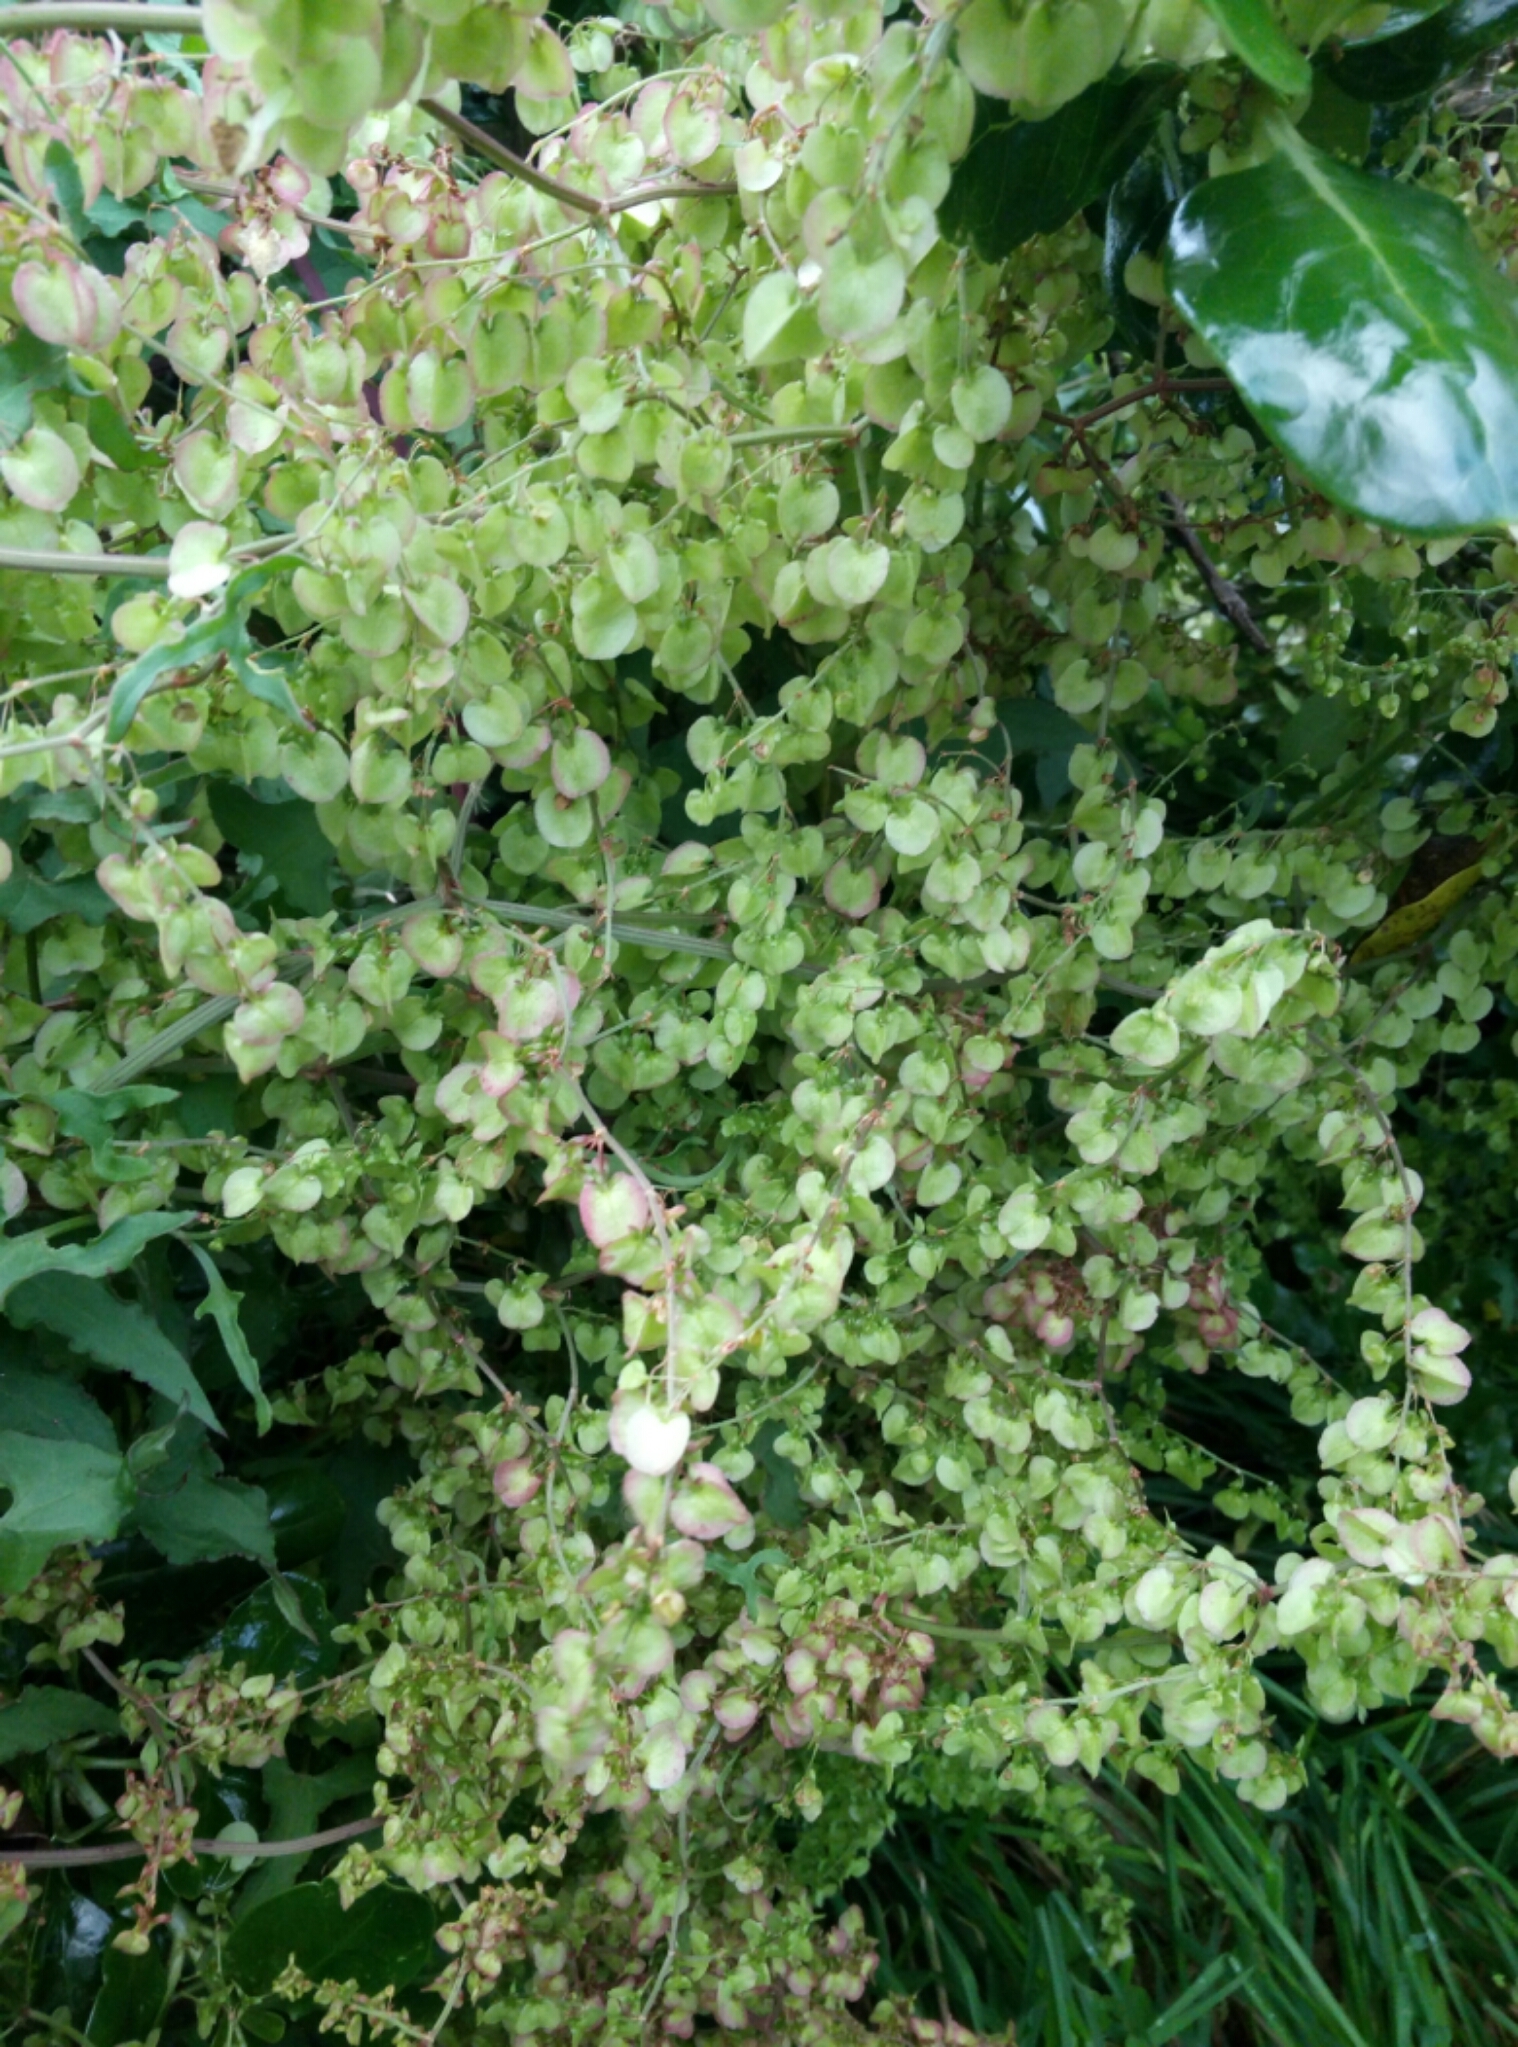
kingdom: Plantae
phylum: Tracheophyta
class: Magnoliopsida
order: Caryophyllales
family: Polygonaceae
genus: Rumex
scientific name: Rumex sagittatus
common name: Climbing dock
